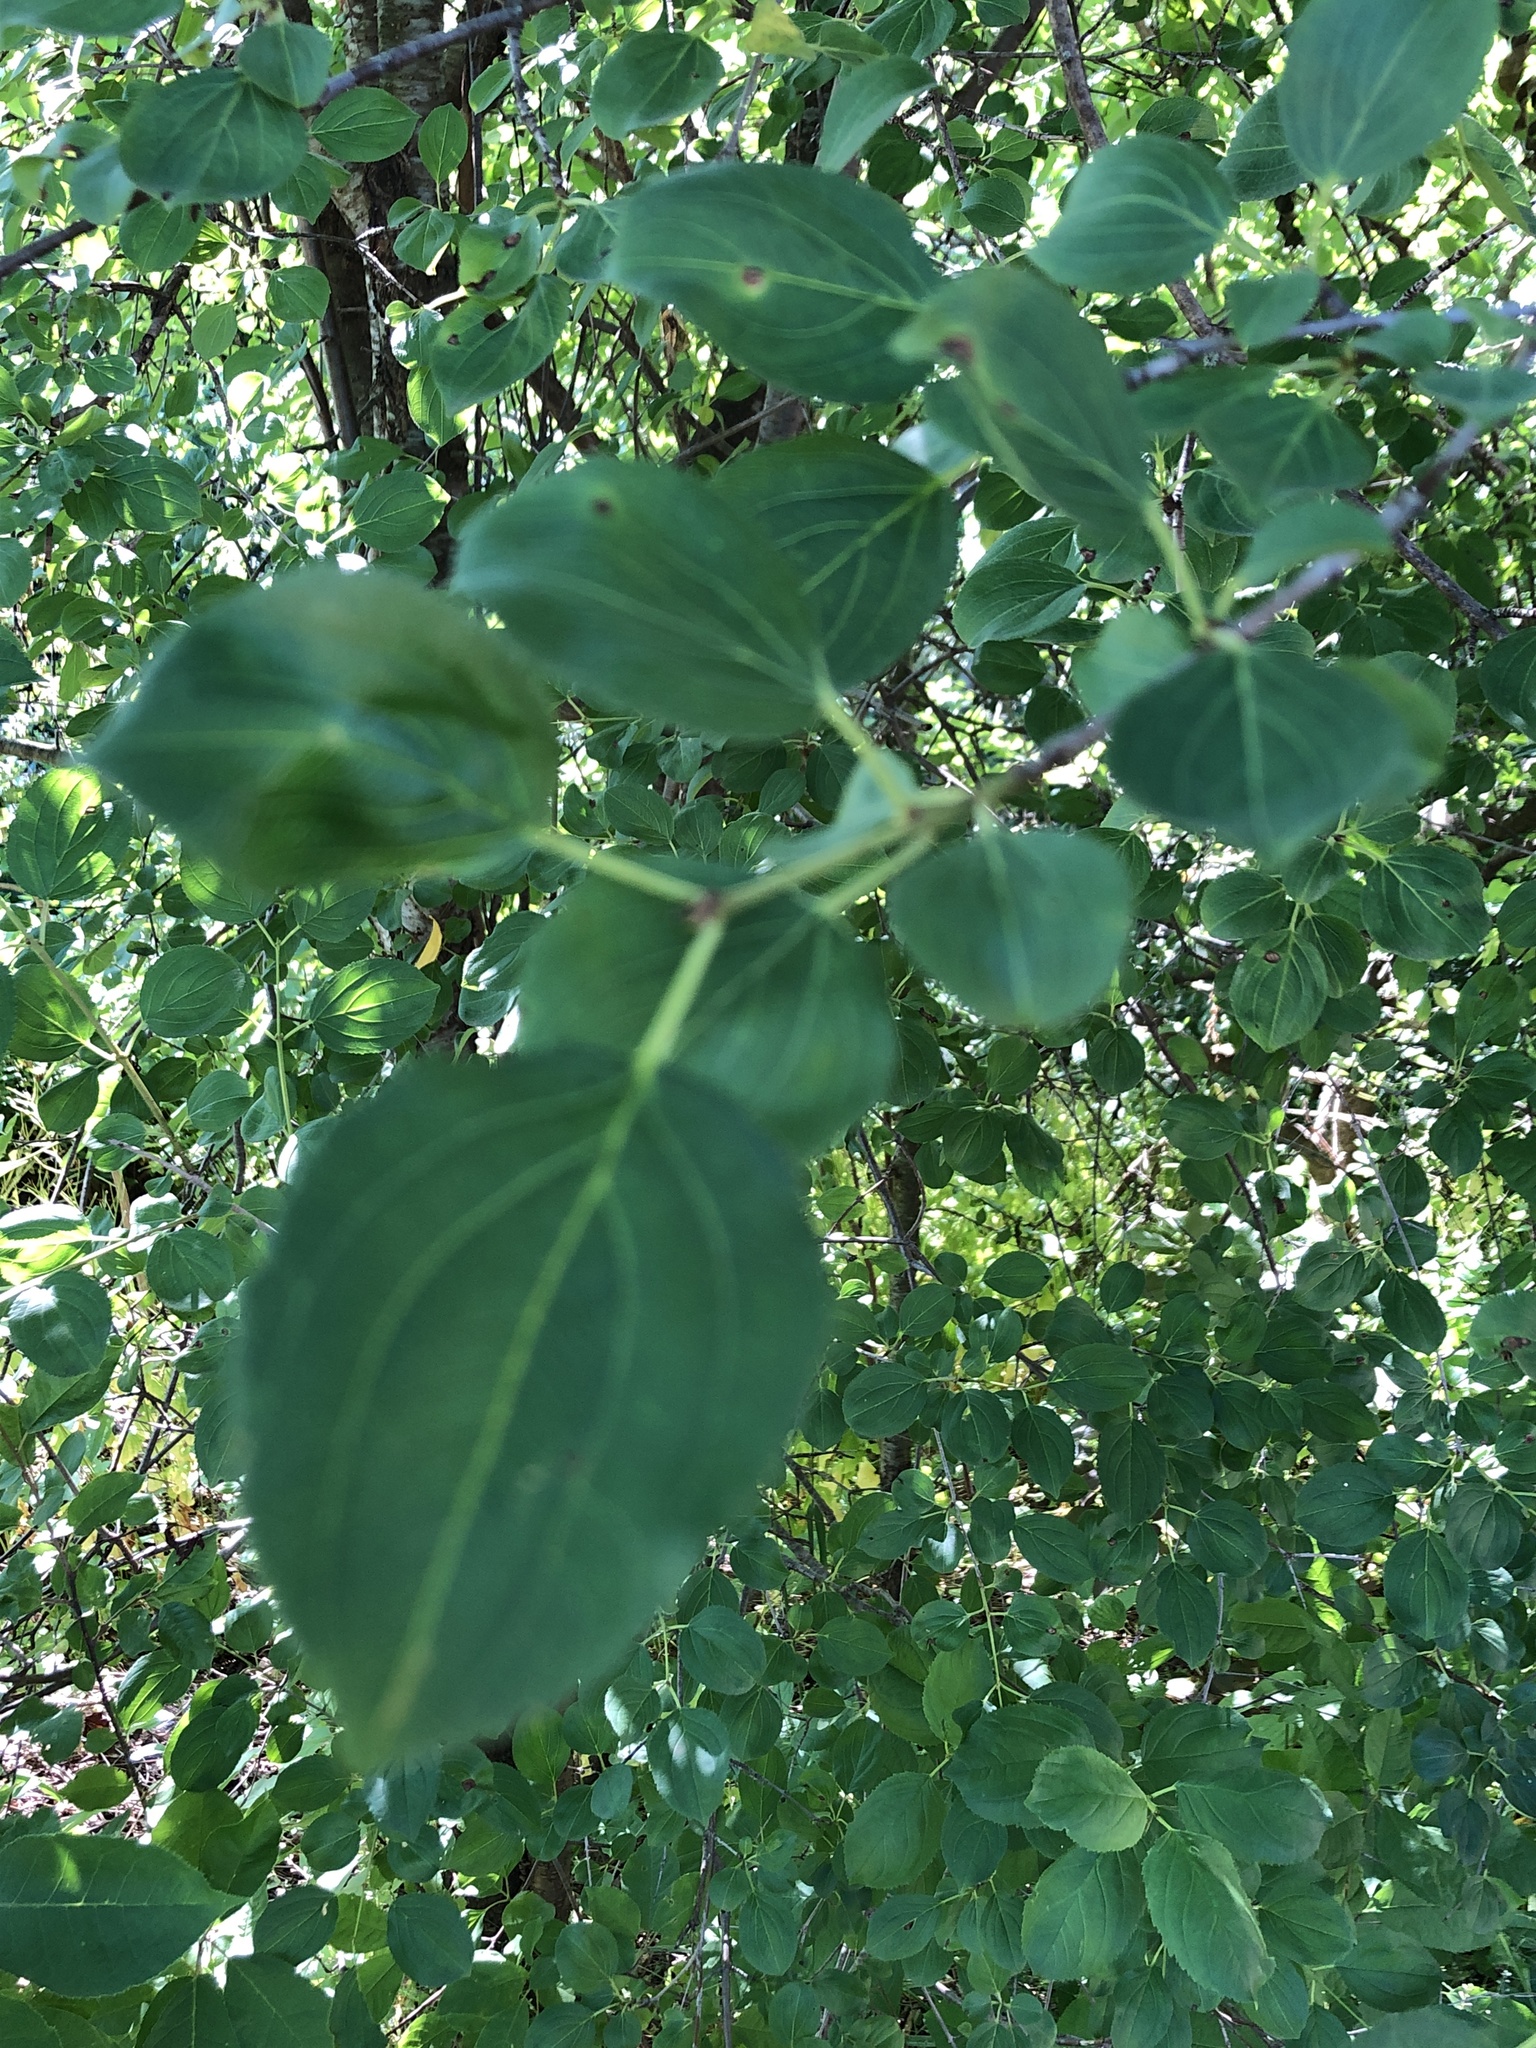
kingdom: Plantae
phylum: Tracheophyta
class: Magnoliopsida
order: Rosales
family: Rhamnaceae
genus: Rhamnus
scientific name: Rhamnus cathartica
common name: Common buckthorn
